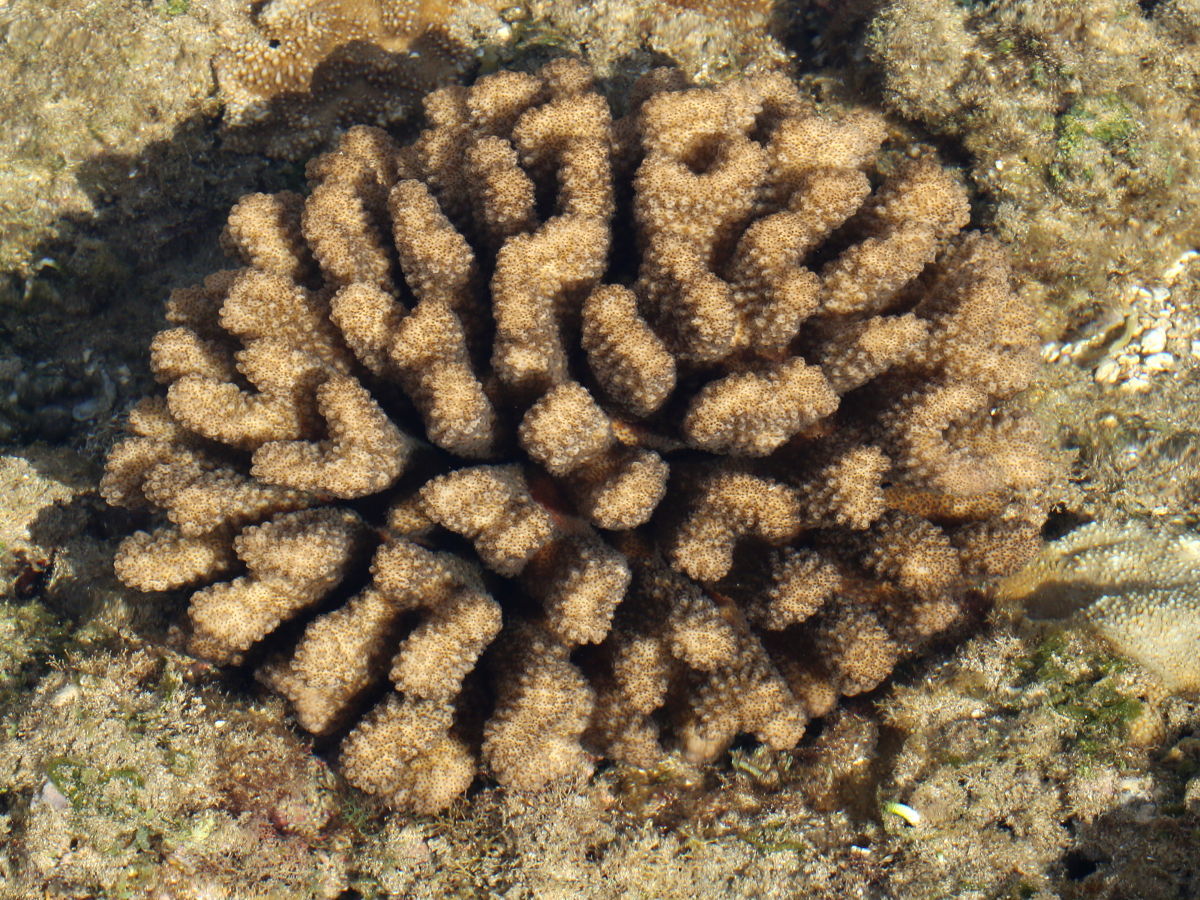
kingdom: Animalia
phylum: Cnidaria
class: Anthozoa
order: Scleractinia
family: Pocilloporidae
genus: Pocillopora
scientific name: Pocillopora meandrina
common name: Cauliflower coral
